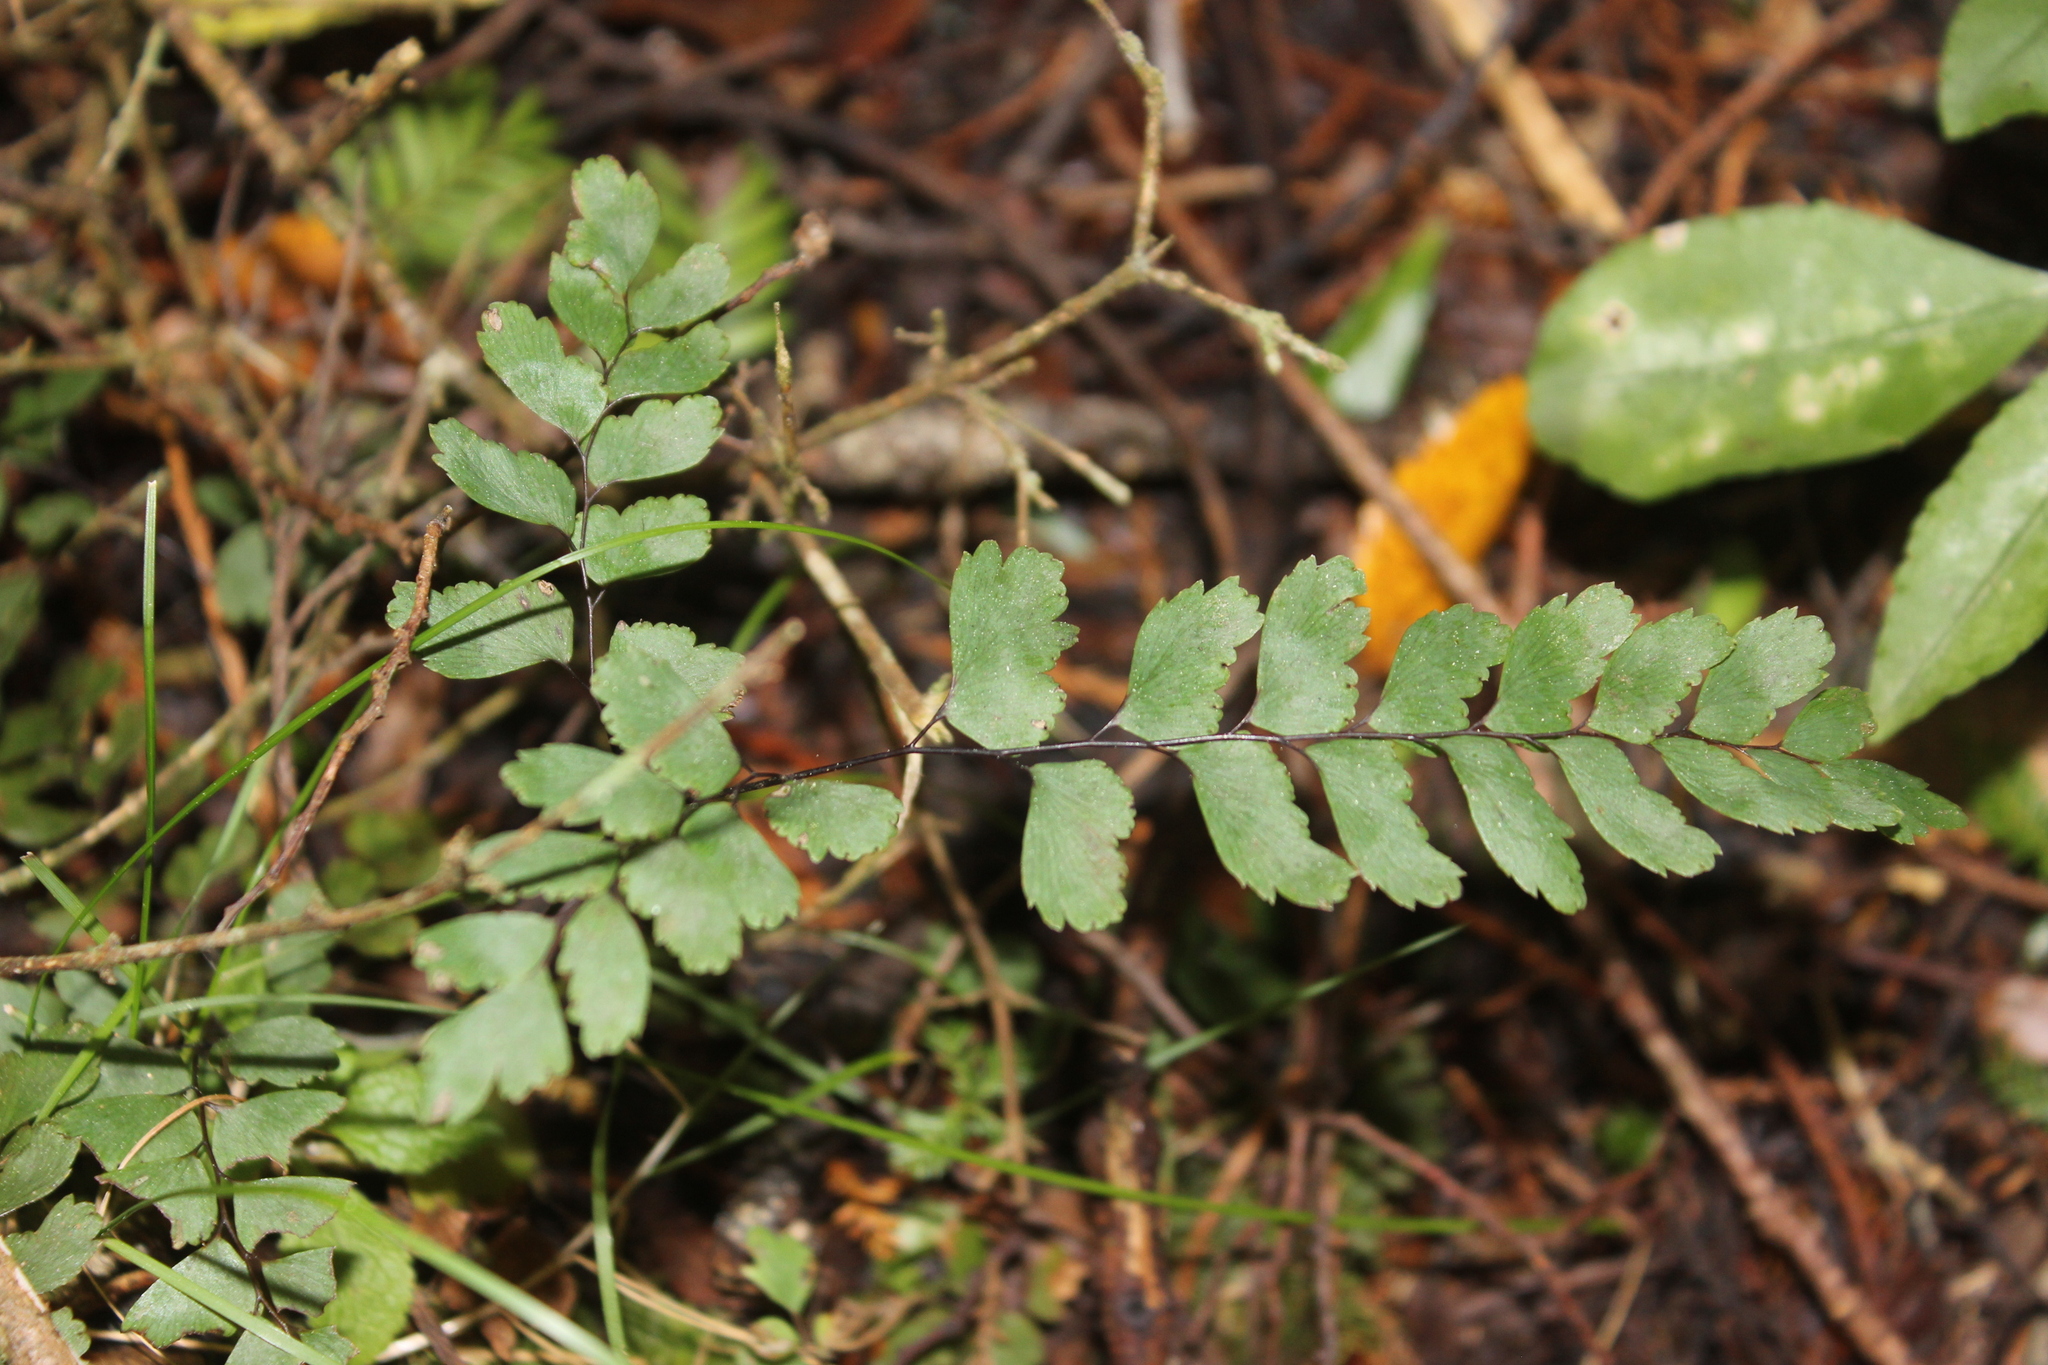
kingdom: Plantae
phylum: Tracheophyta
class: Polypodiopsida
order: Polypodiales
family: Pteridaceae
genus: Adiantum
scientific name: Adiantum cunninghamii
